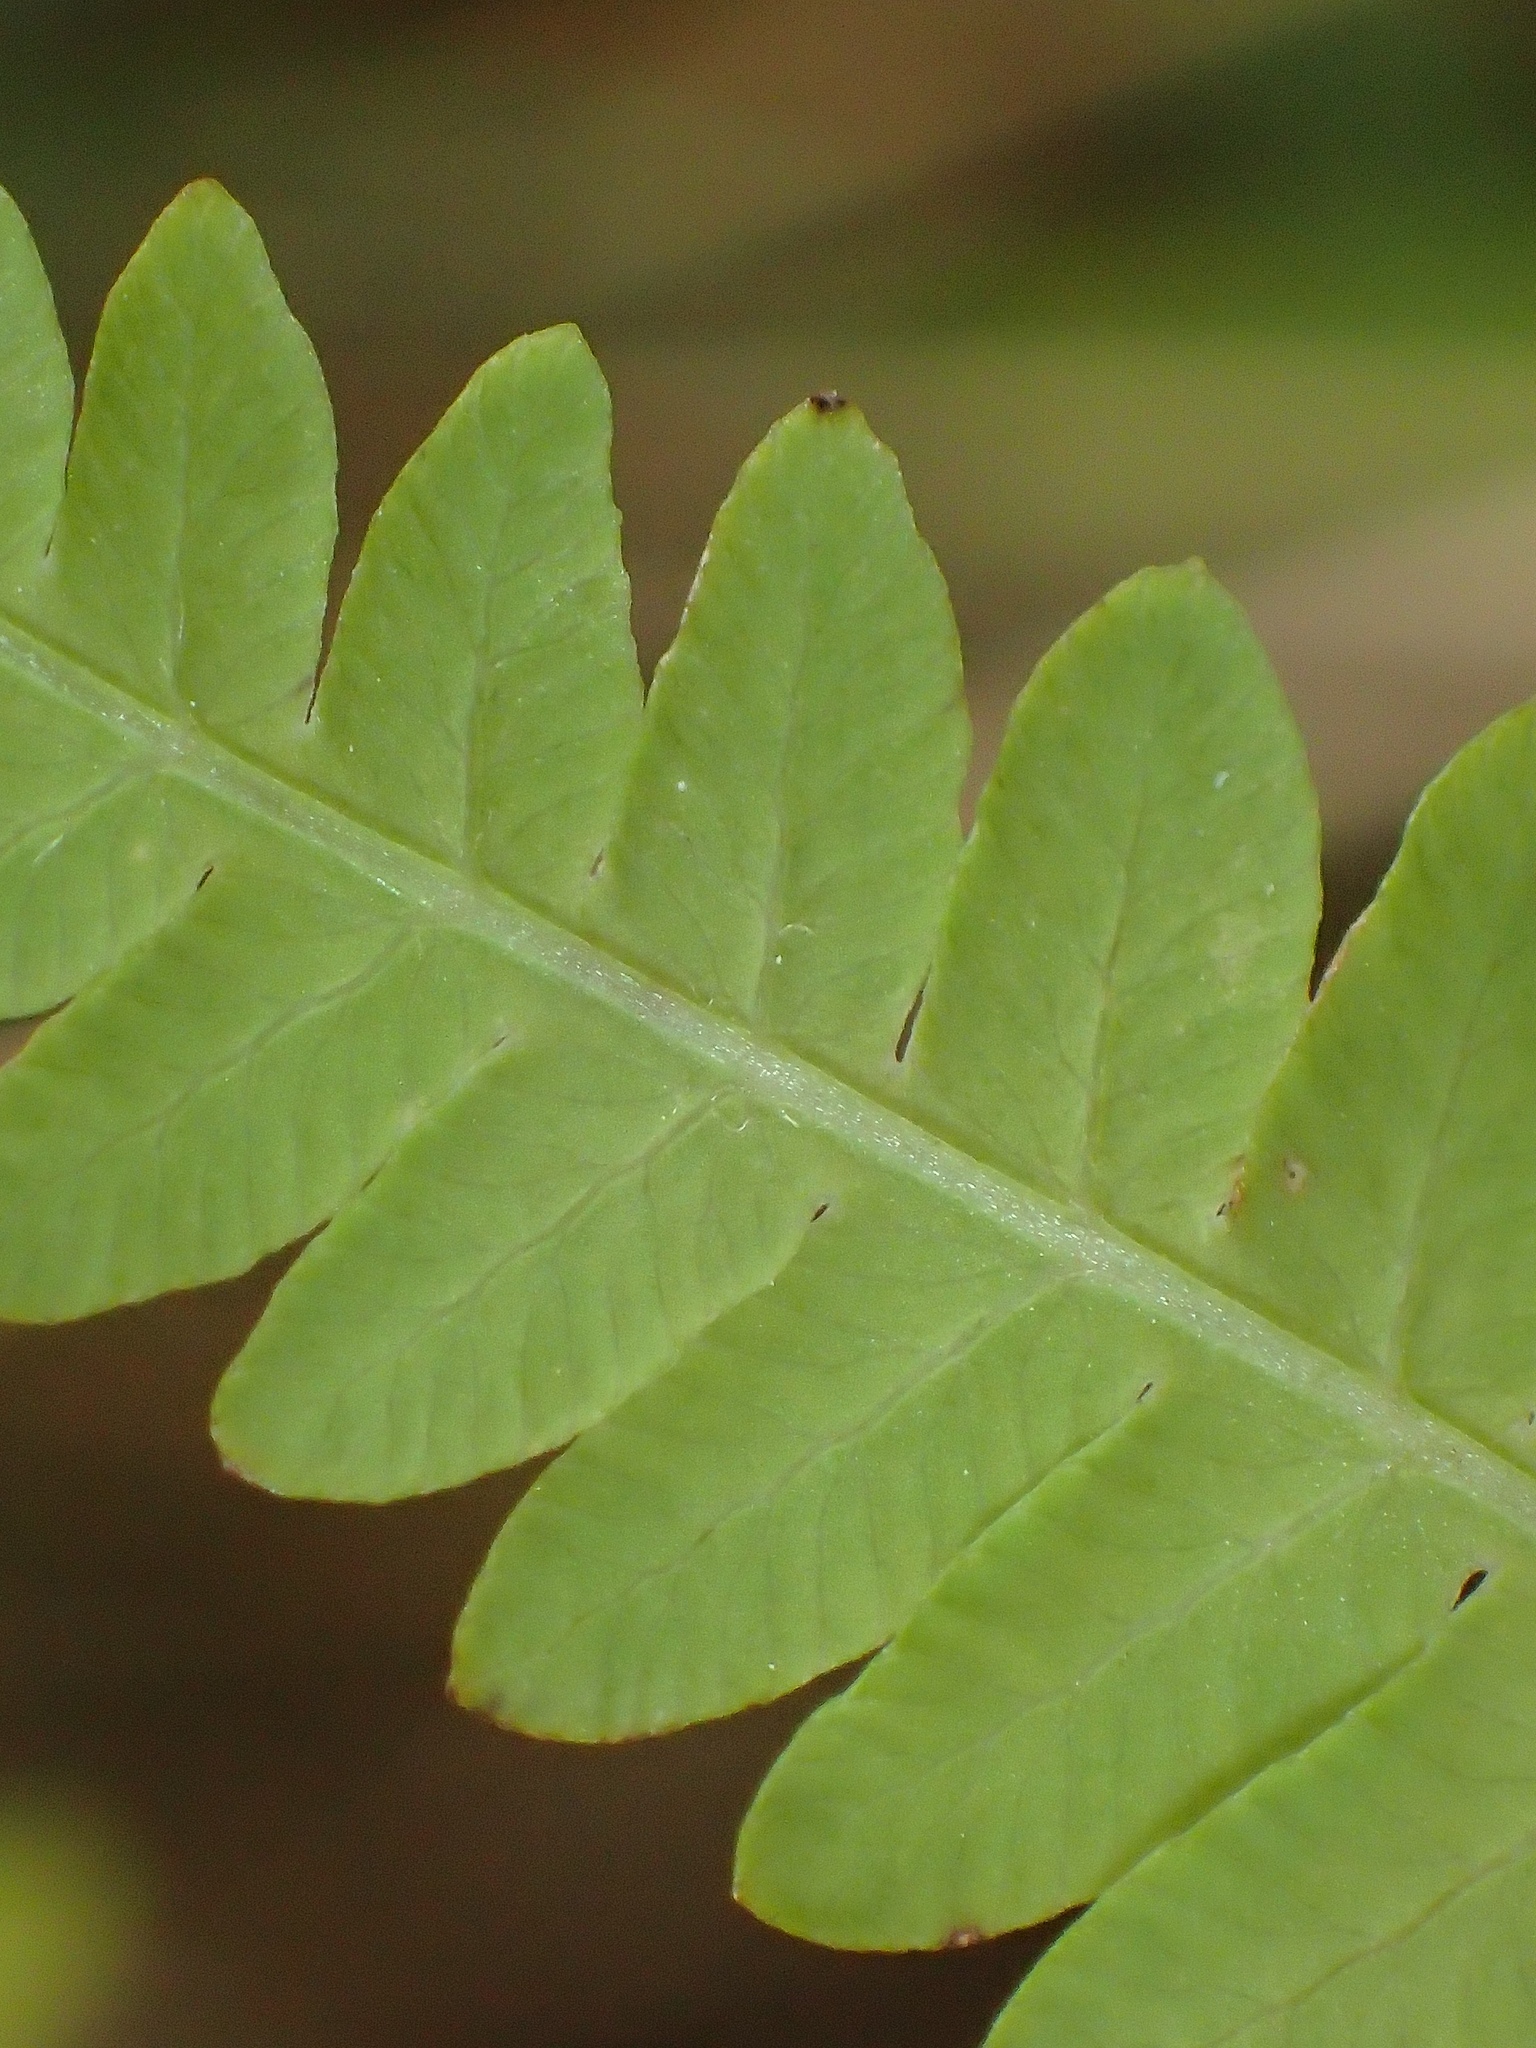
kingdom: Plantae
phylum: Tracheophyta
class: Polypodiopsida
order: Polypodiales
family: Thelypteridaceae
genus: Thelypteris
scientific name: Thelypteris palustris
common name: Marsh fern
